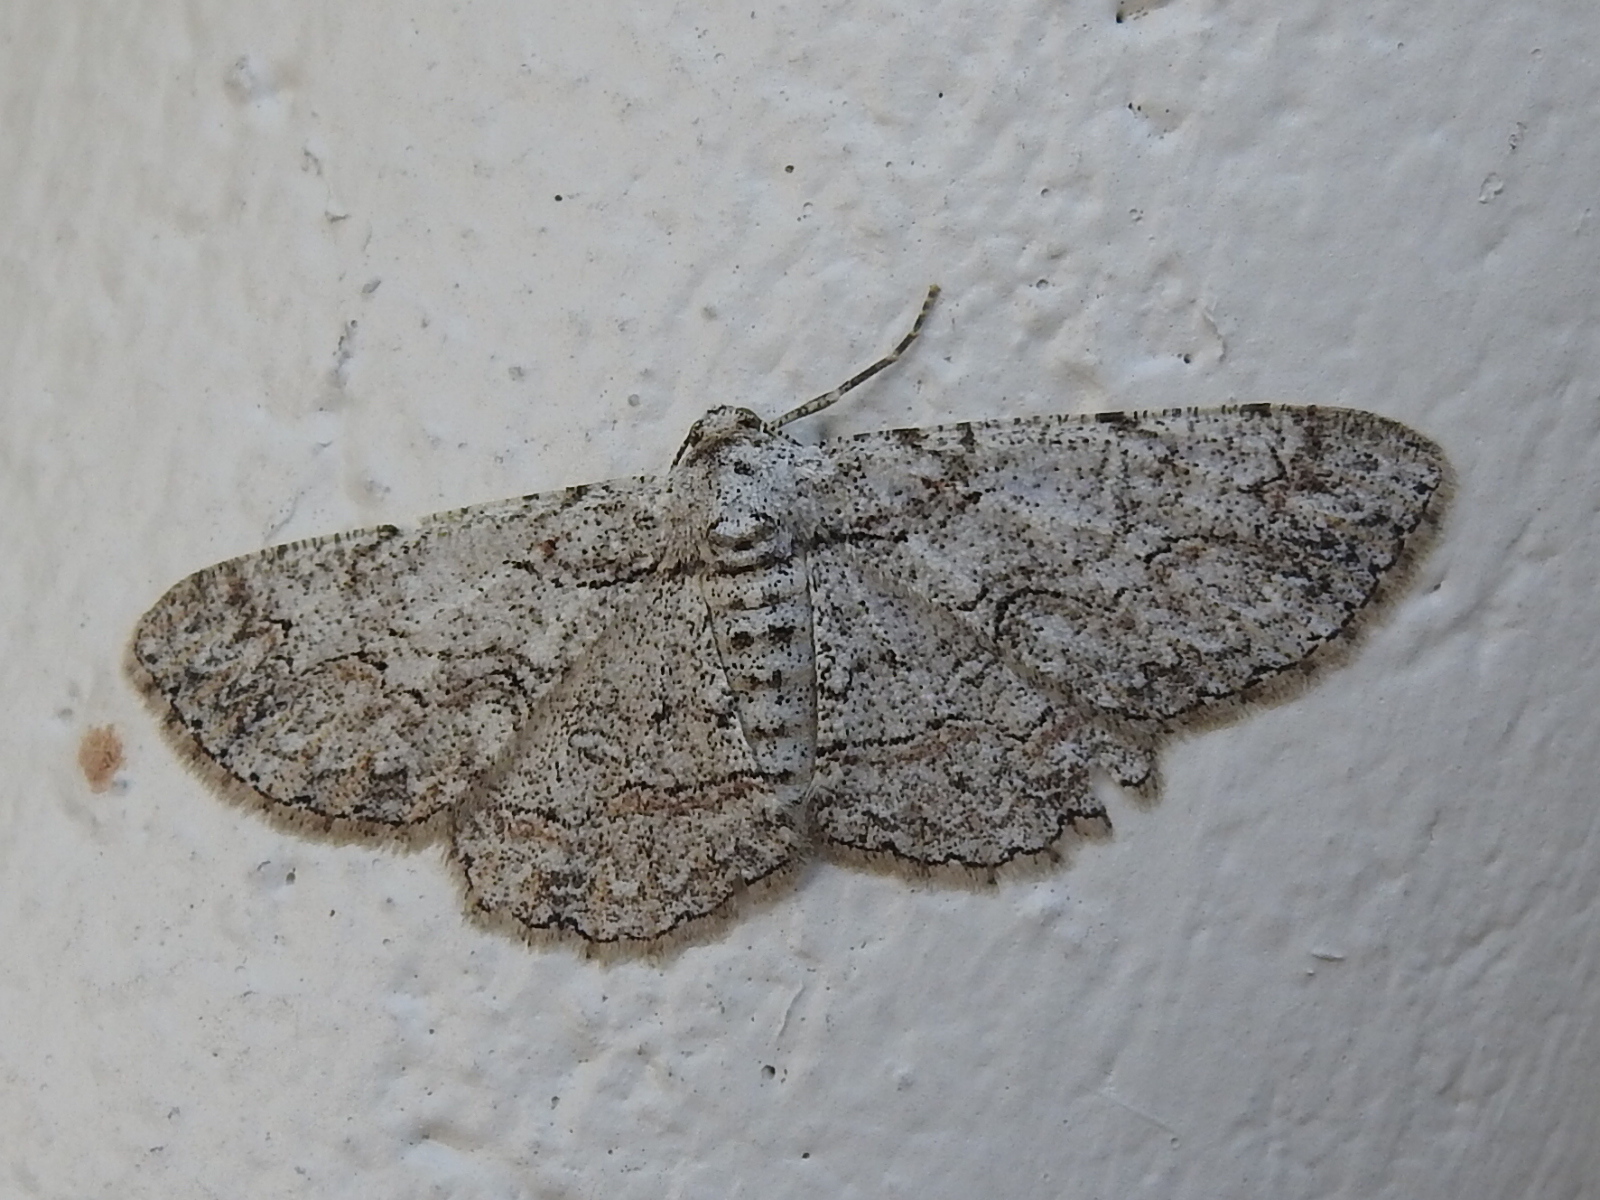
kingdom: Animalia
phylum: Arthropoda
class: Insecta
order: Lepidoptera
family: Geometridae
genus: Iridopsis
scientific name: Iridopsis defectaria
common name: Brown-shaded gray
